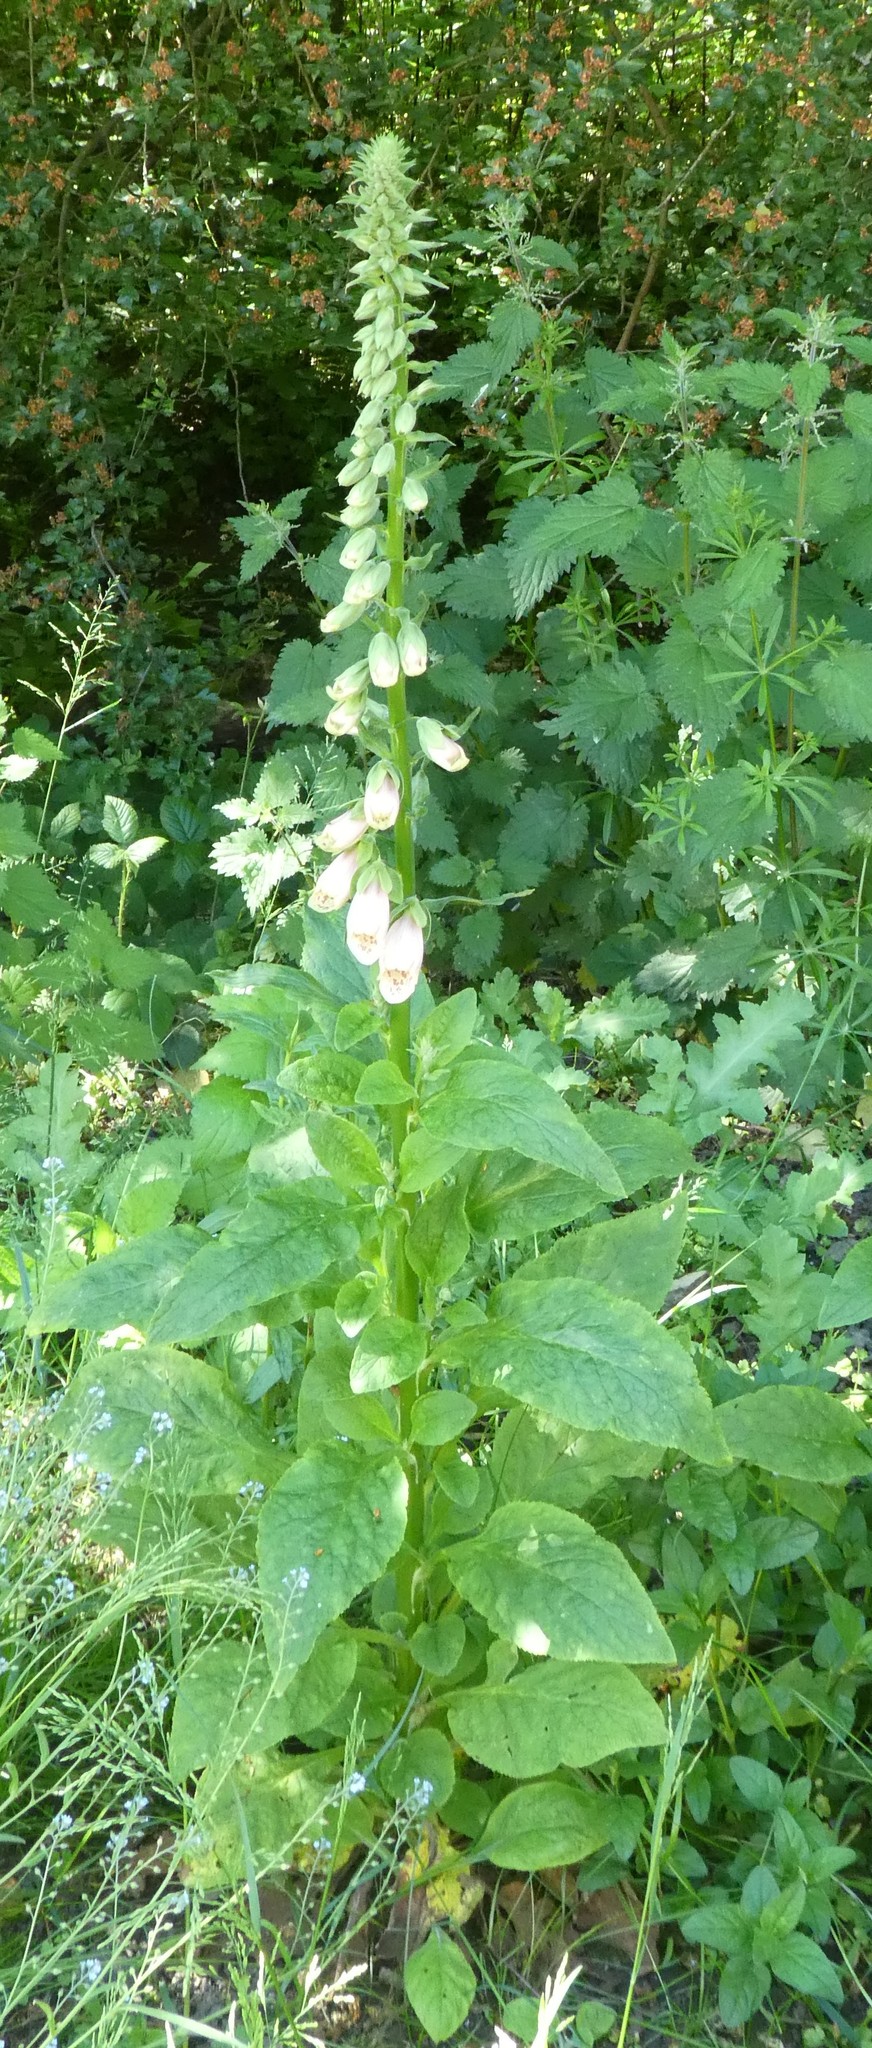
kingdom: Plantae
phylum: Tracheophyta
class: Magnoliopsida
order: Lamiales
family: Plantaginaceae
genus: Digitalis
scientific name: Digitalis purpurea
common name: Foxglove
